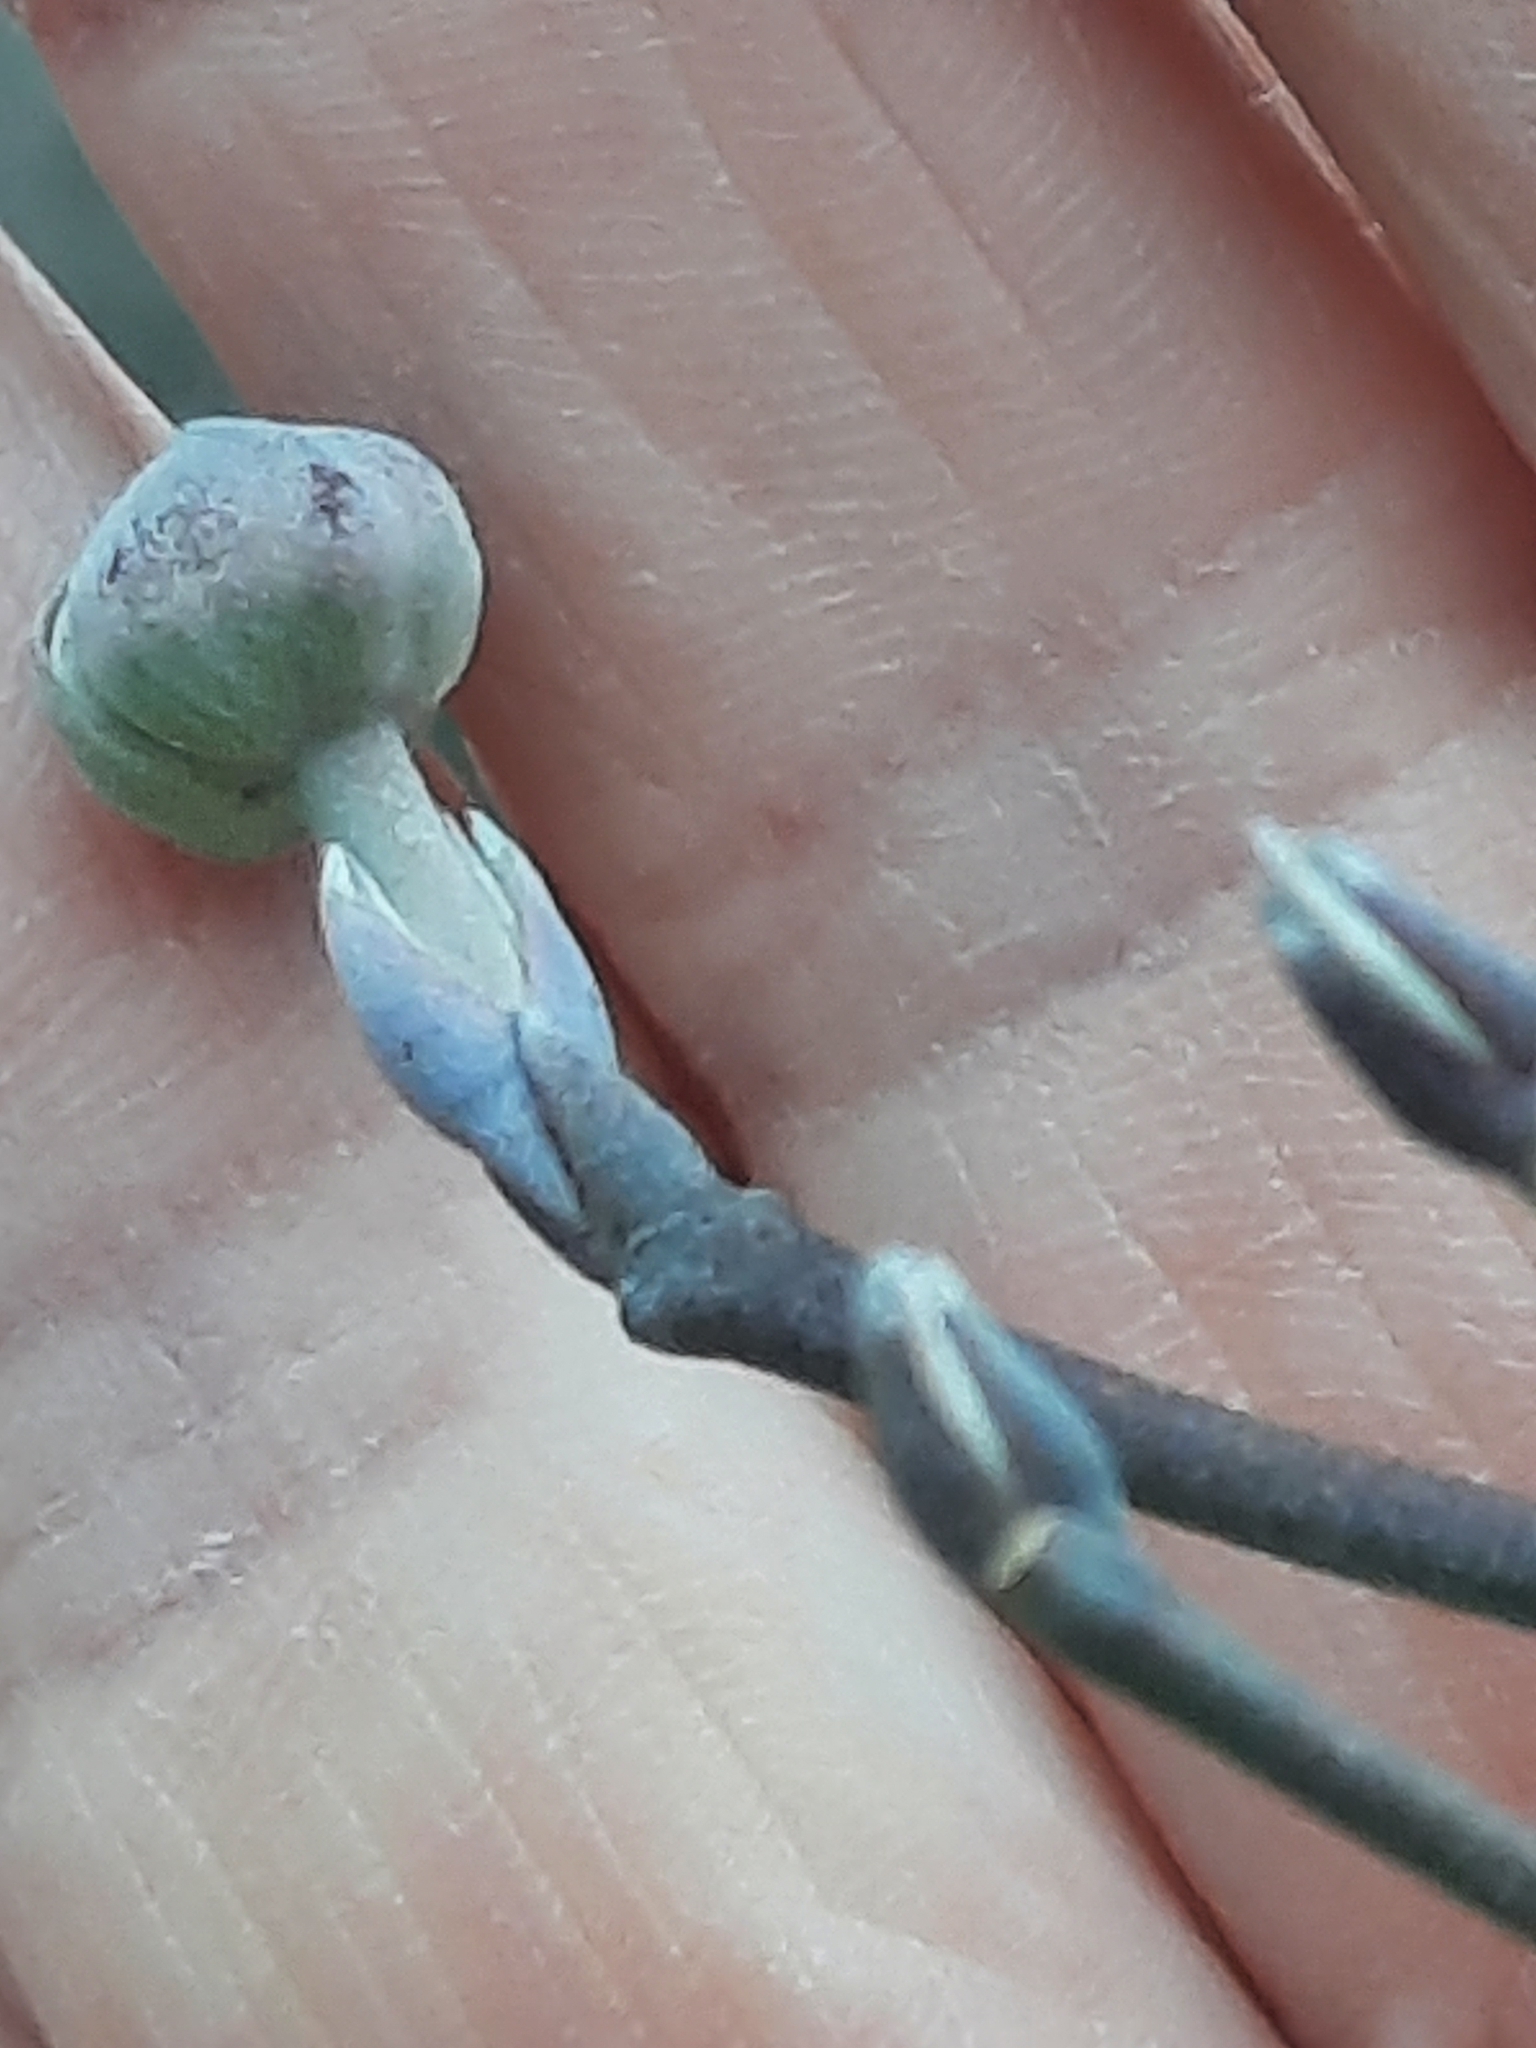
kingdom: Plantae
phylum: Tracheophyta
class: Magnoliopsida
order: Cornales
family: Cornaceae
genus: Cornus
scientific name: Cornus florida
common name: Flowering dogwood
